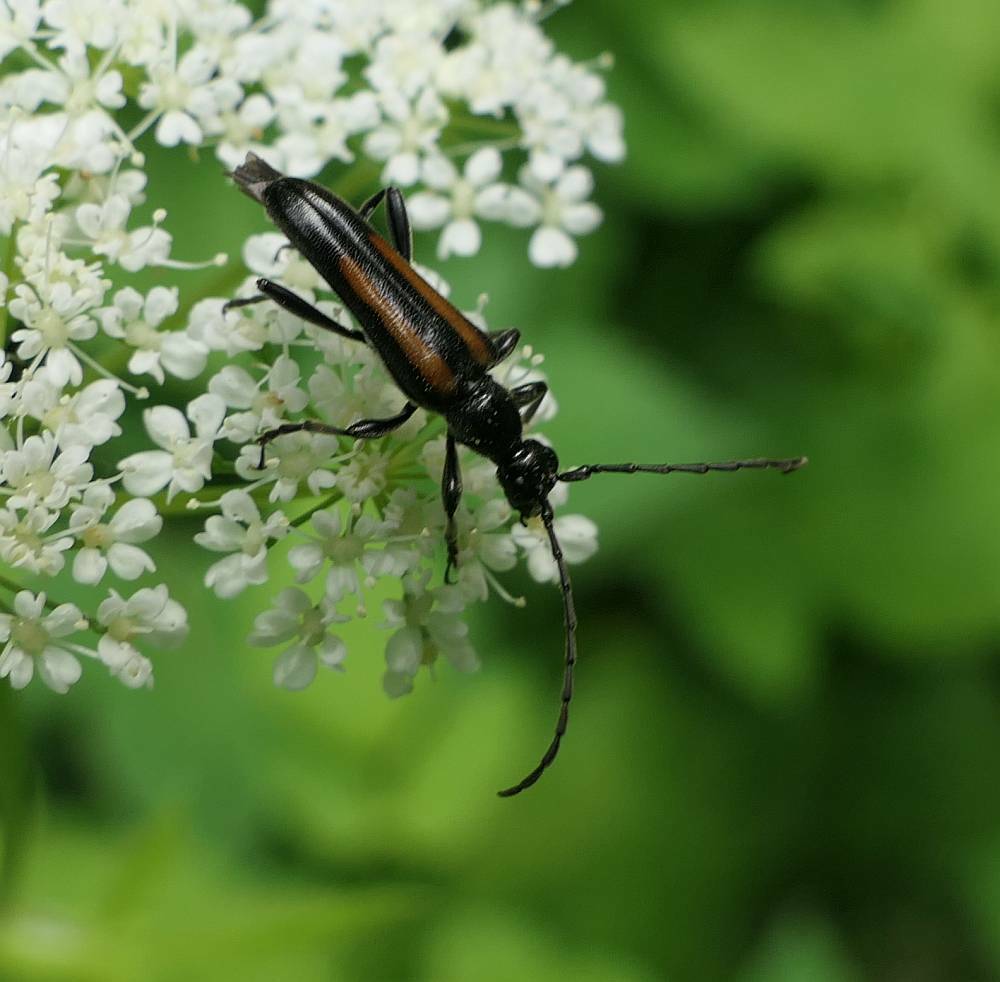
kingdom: Animalia
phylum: Arthropoda
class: Insecta
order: Coleoptera
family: Cerambycidae
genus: Strangalepta
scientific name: Strangalepta abbreviata
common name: Strangalepta flower longhorn beetle
